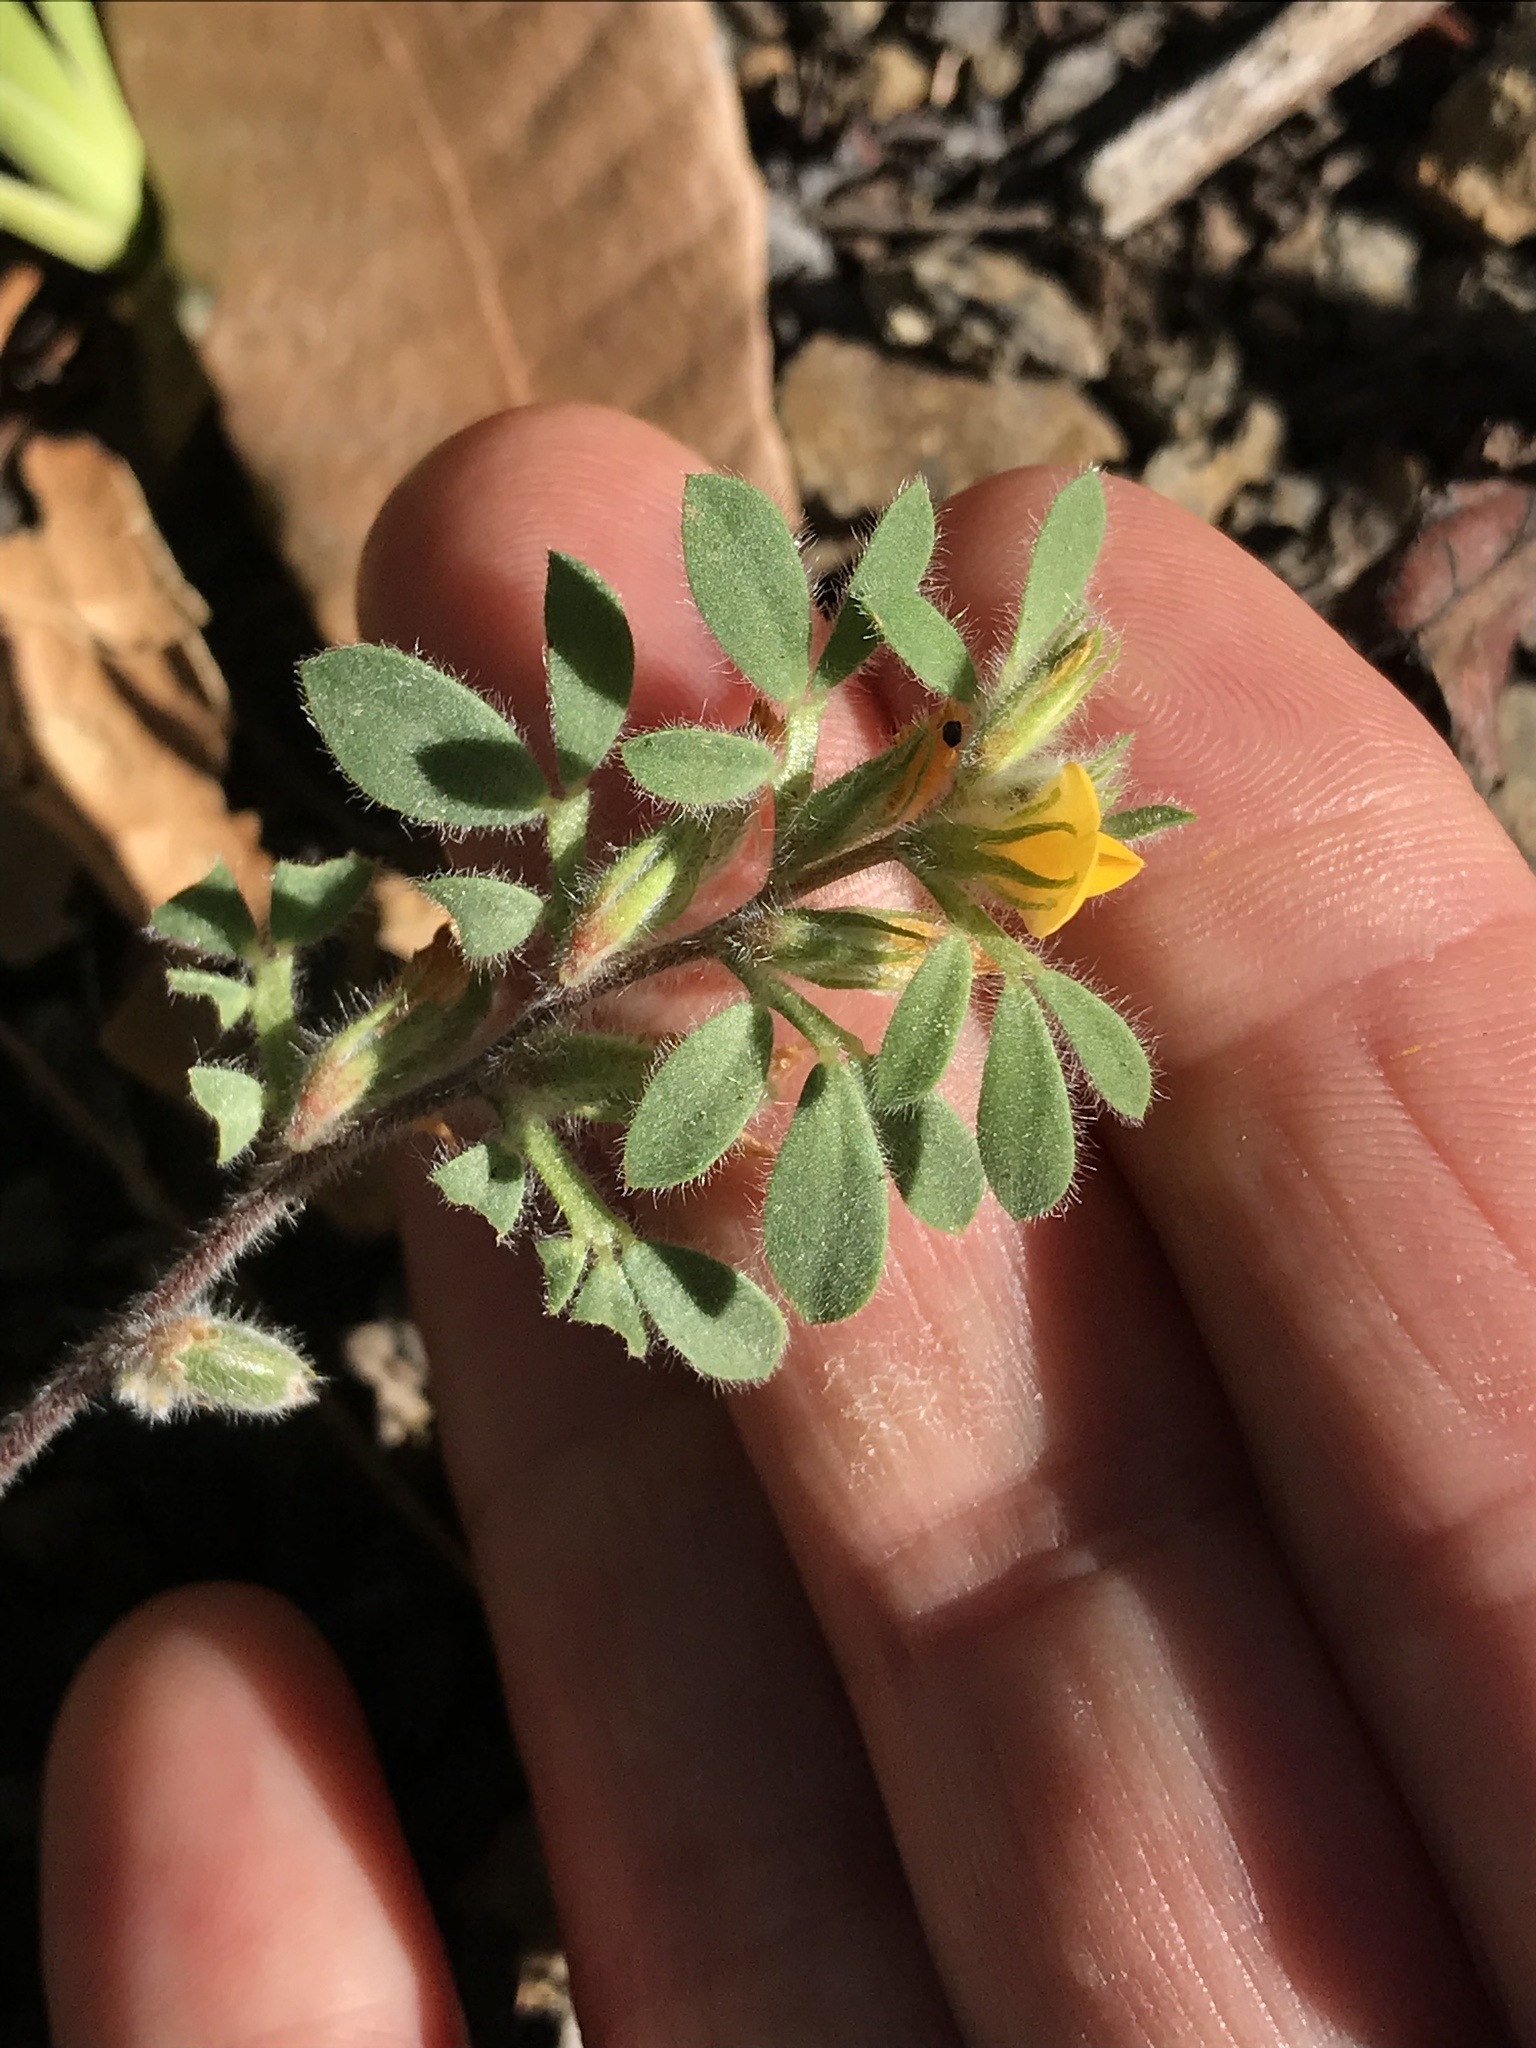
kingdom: Plantae
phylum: Tracheophyta
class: Magnoliopsida
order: Fabales
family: Fabaceae
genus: Acmispon
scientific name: Acmispon brachycarpus
